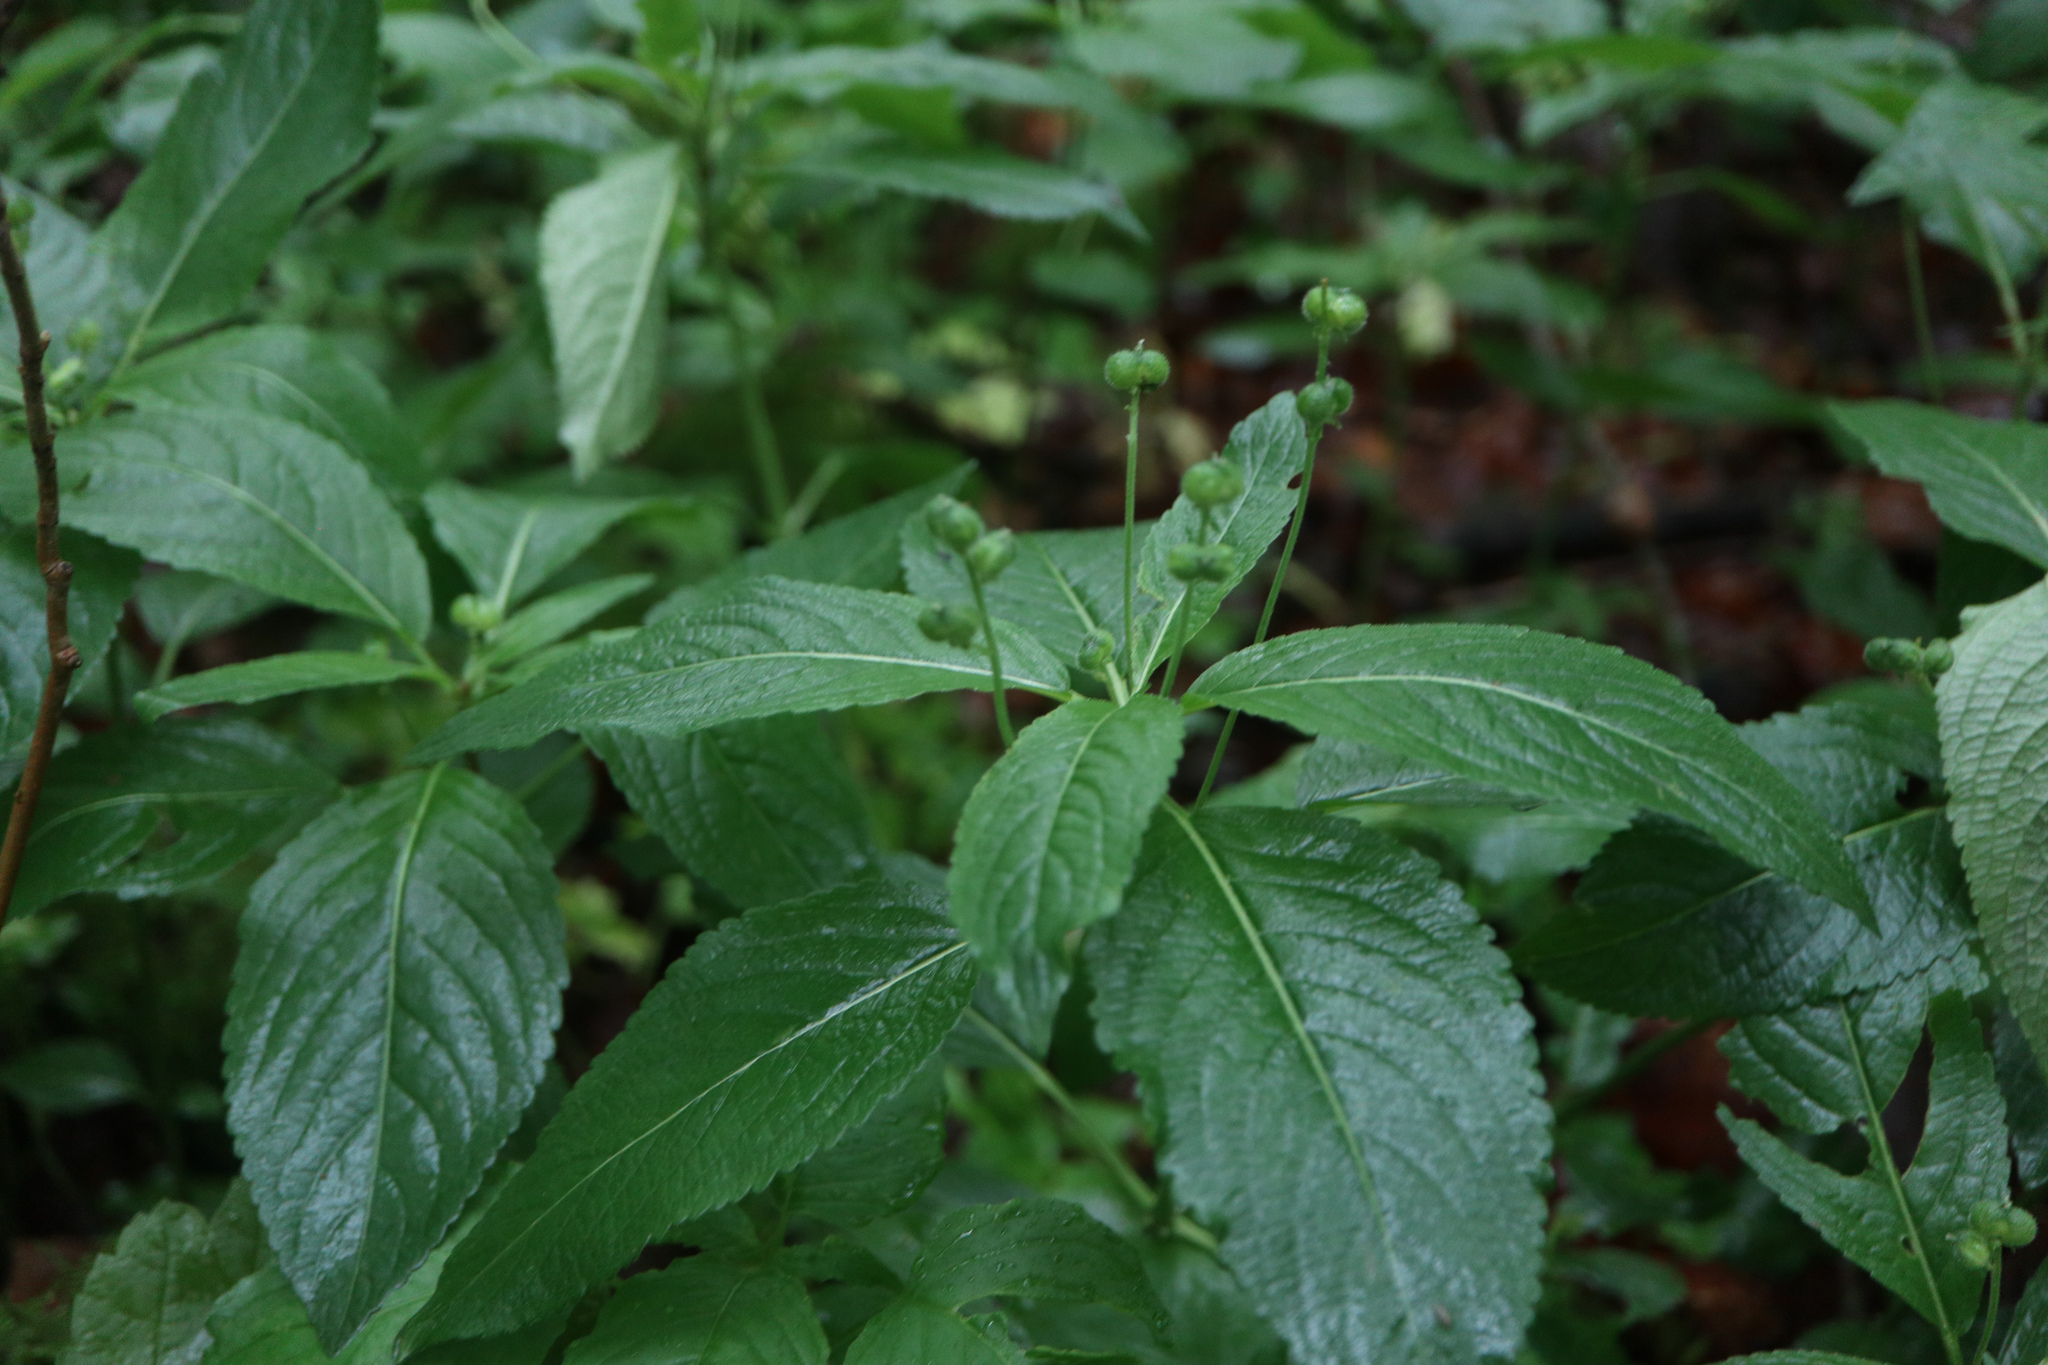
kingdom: Plantae
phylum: Tracheophyta
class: Magnoliopsida
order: Malpighiales
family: Euphorbiaceae
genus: Mercurialis
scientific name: Mercurialis perennis
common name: Dog mercury
